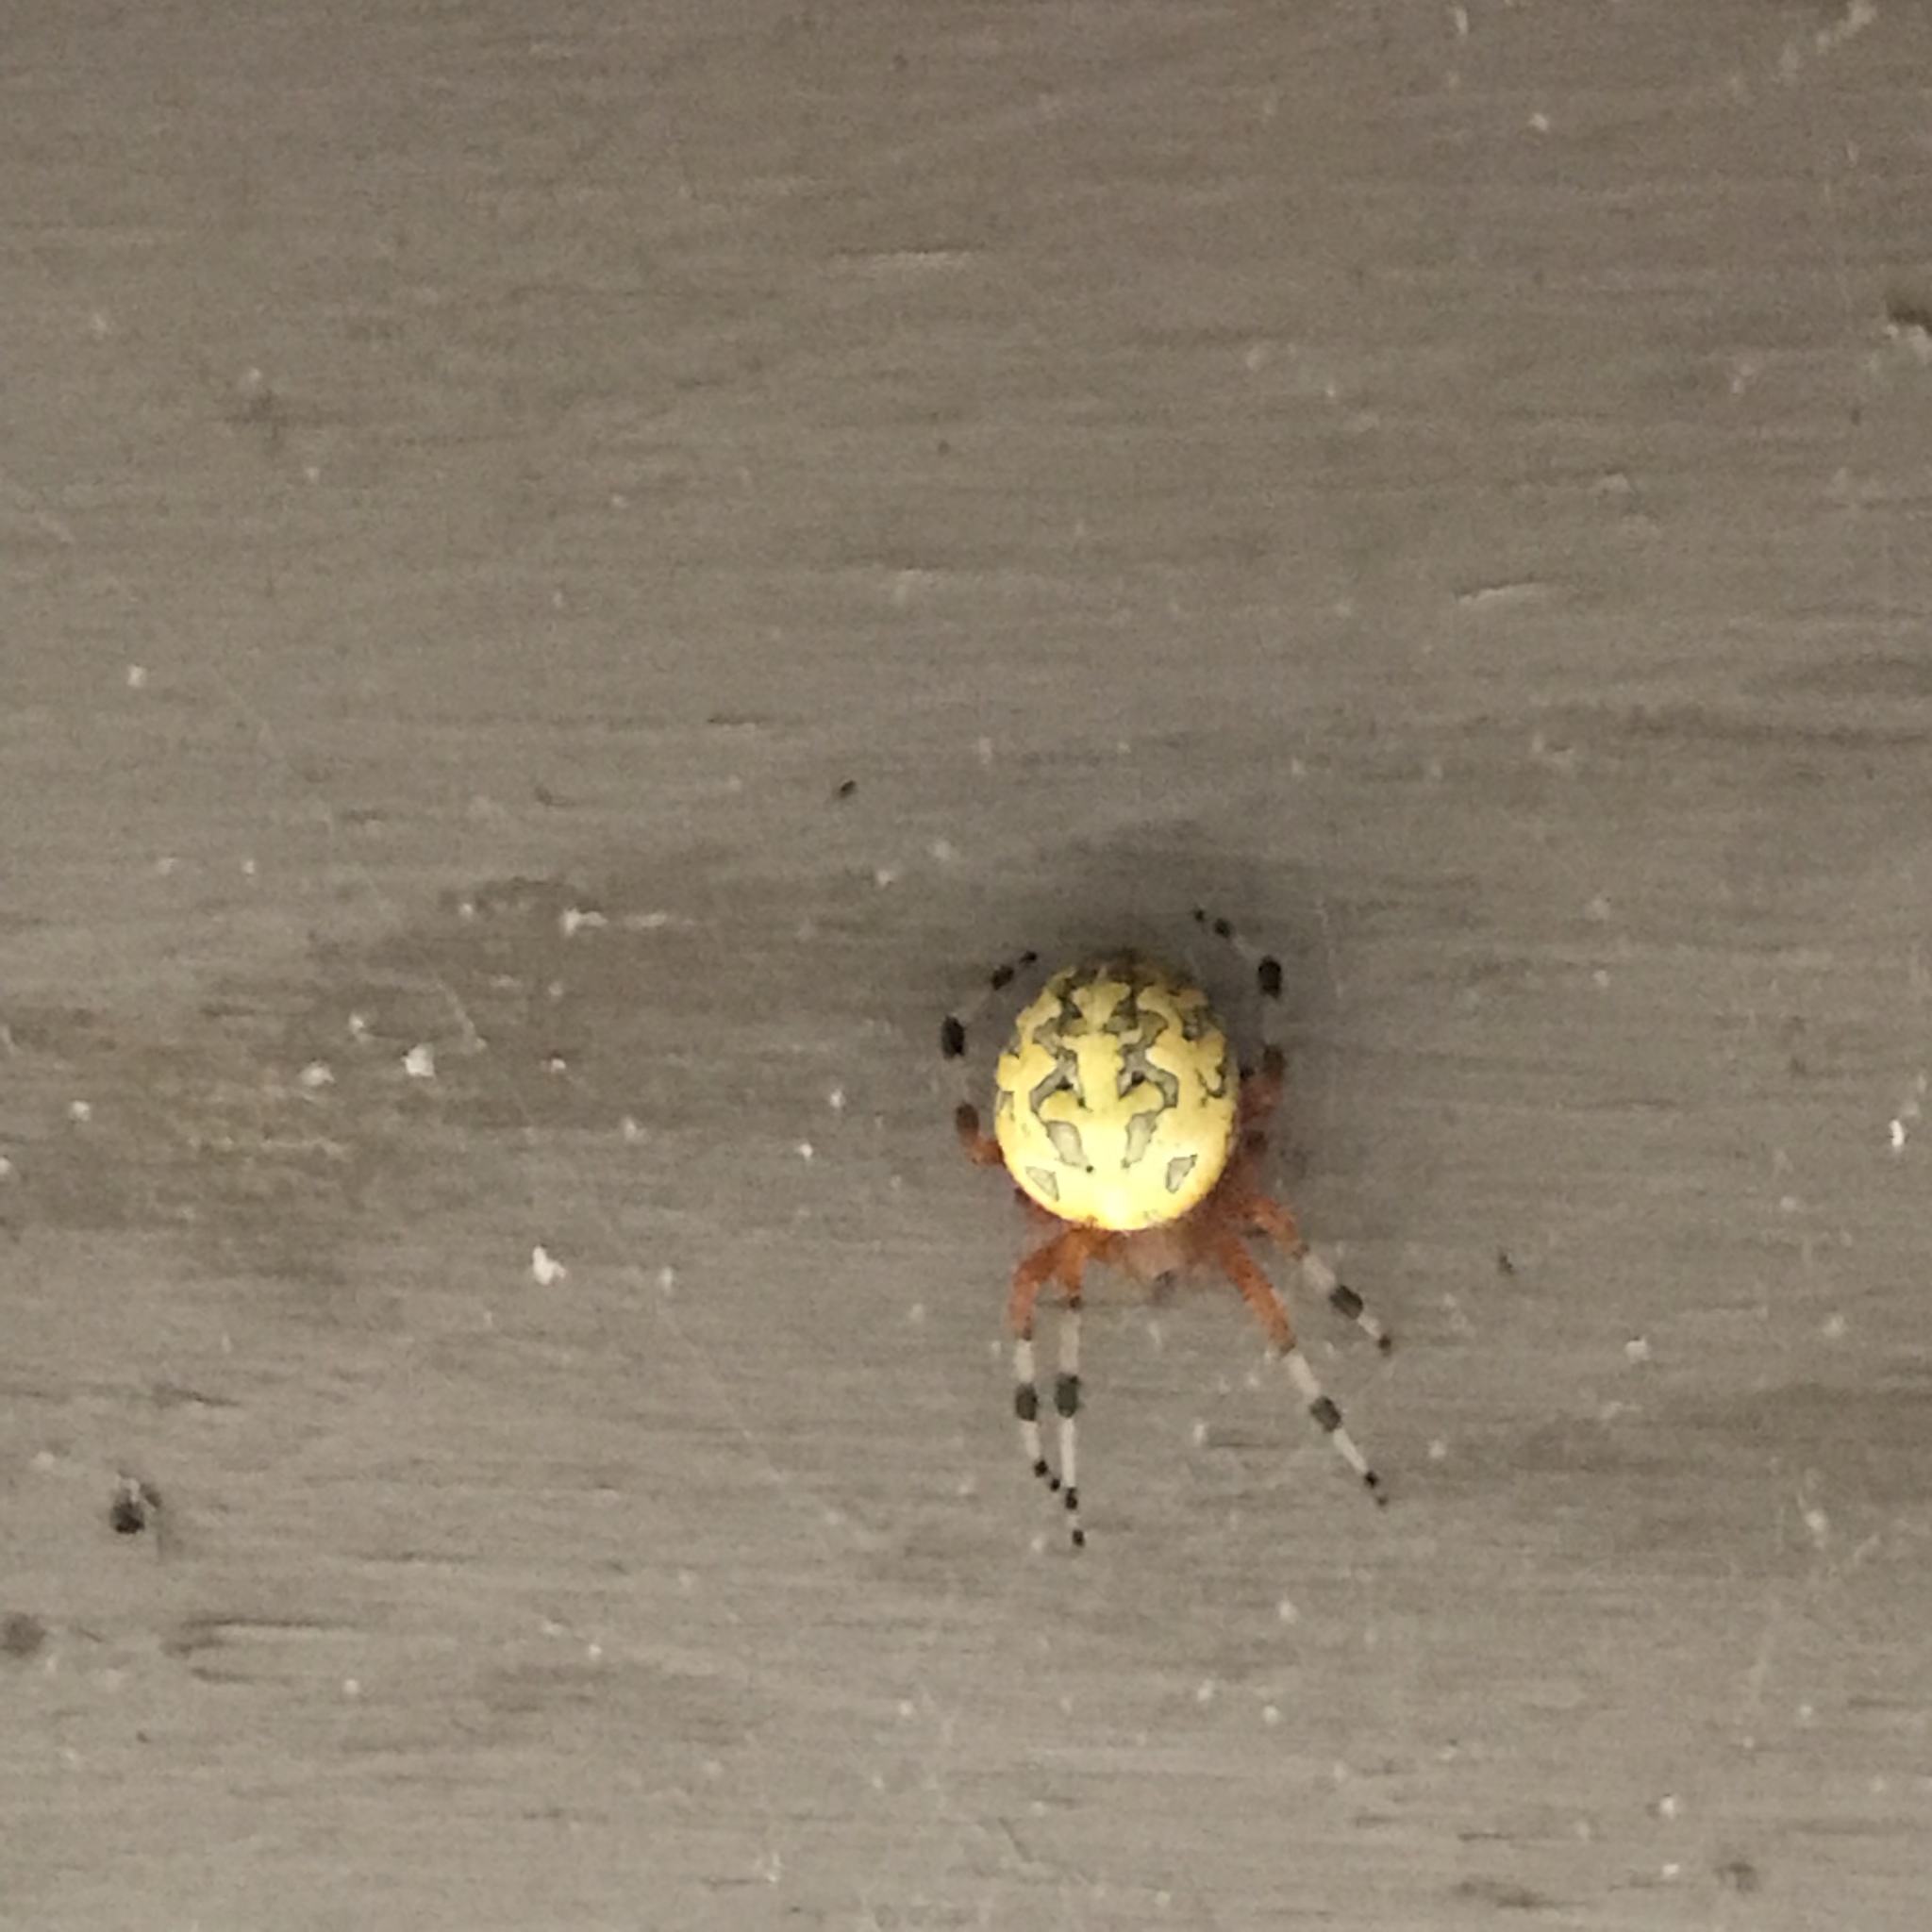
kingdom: Animalia
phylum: Arthropoda
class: Arachnida
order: Araneae
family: Araneidae
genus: Araneus
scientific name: Araneus marmoreus
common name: Marbled orbweaver
